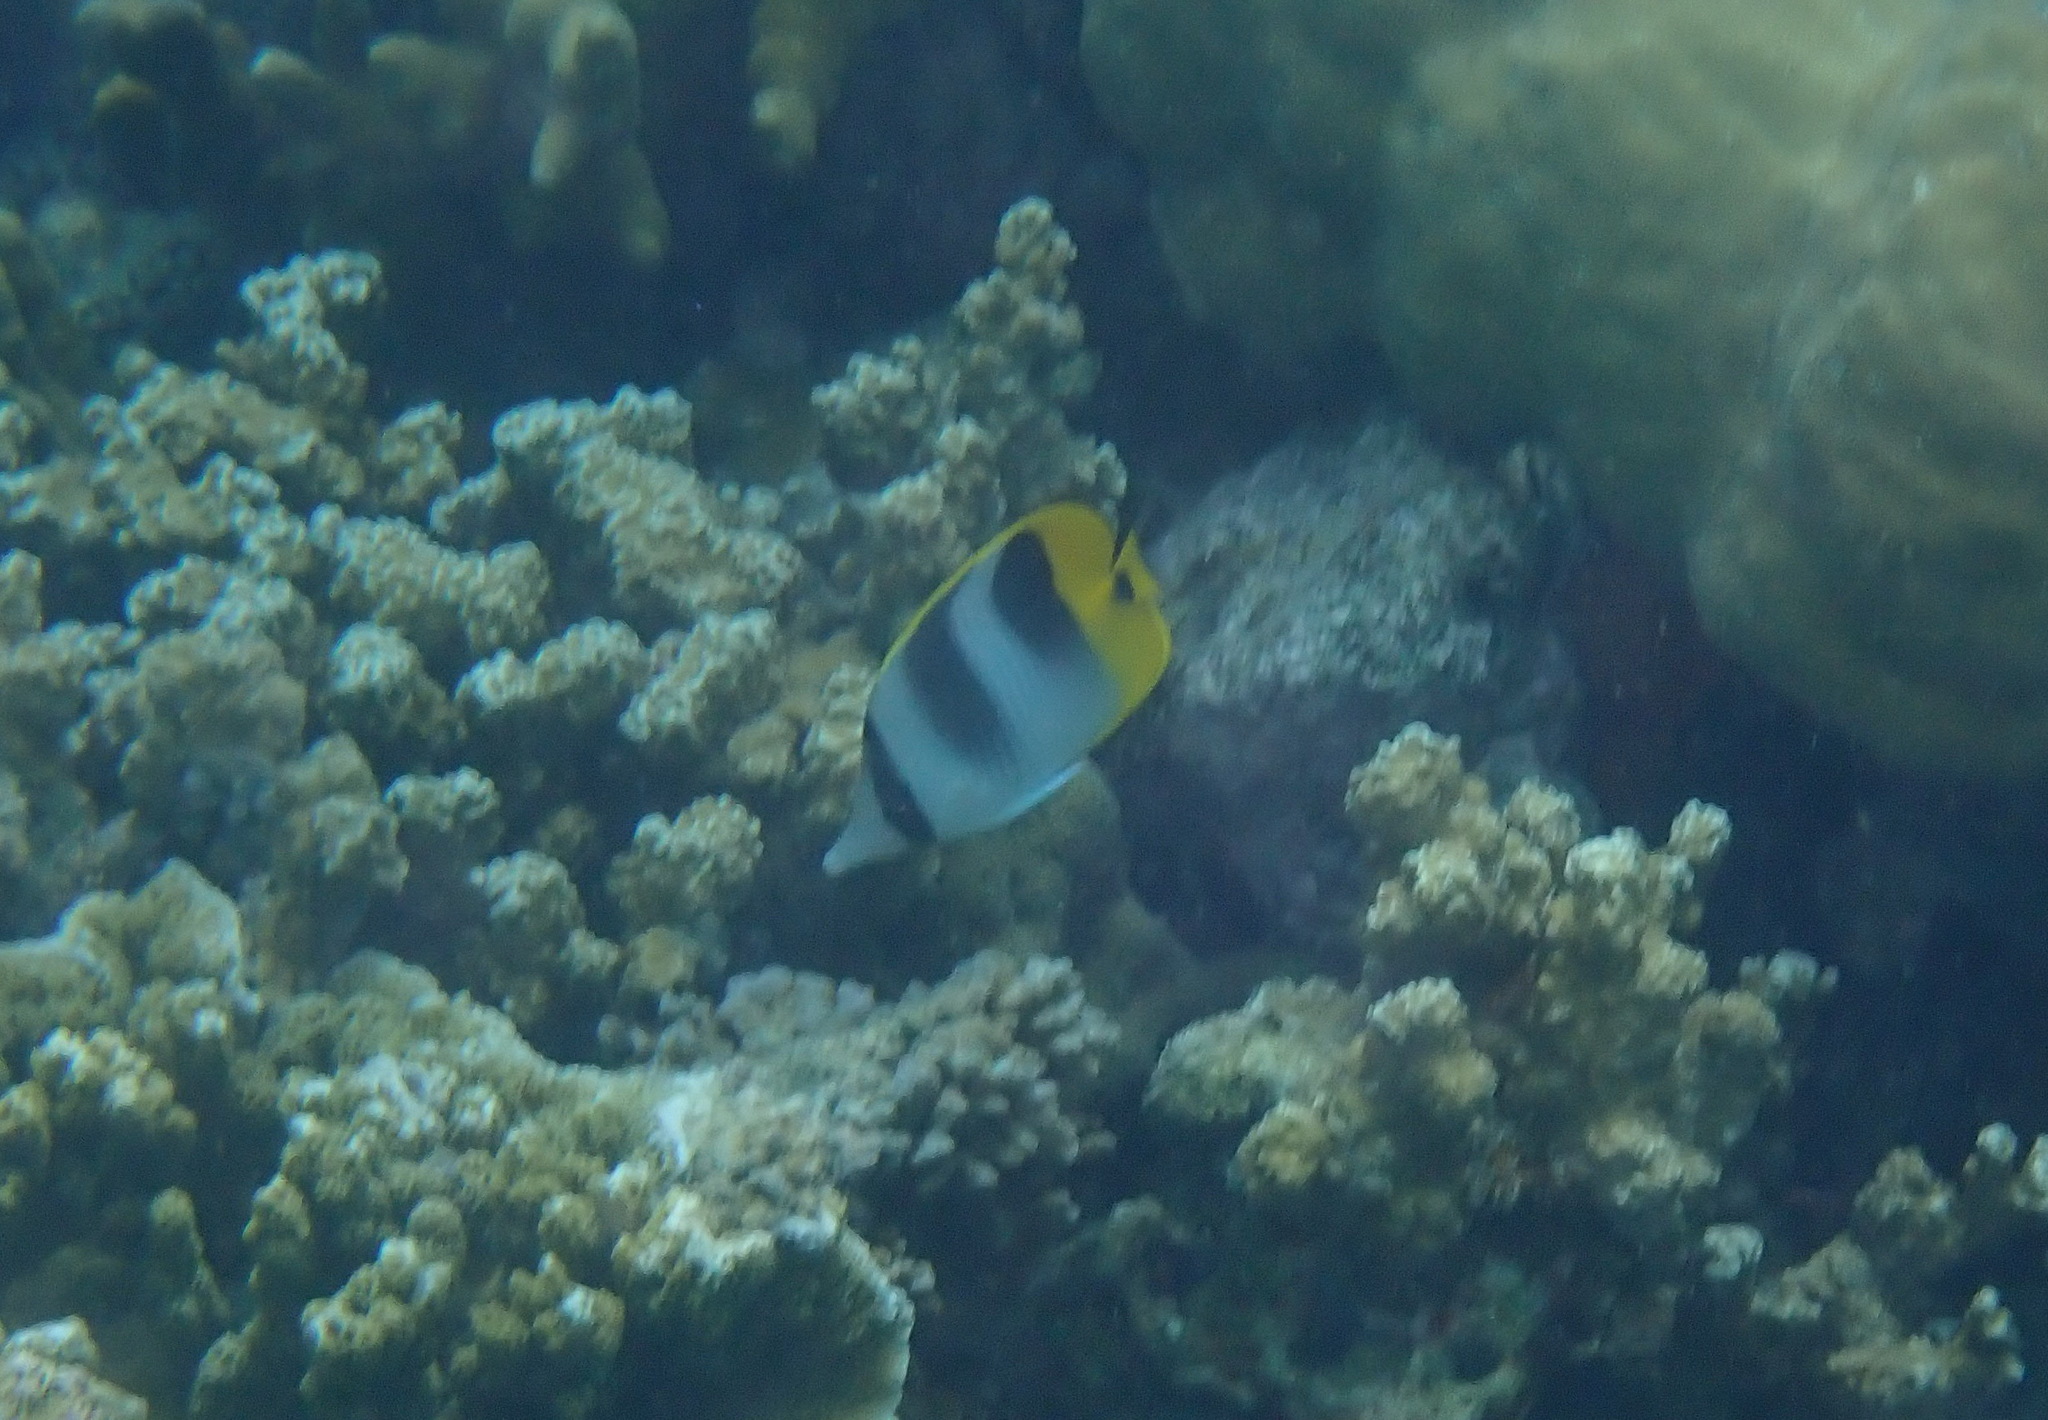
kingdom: Animalia
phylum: Chordata
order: Perciformes
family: Chaetodontidae
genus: Chaetodon
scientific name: Chaetodon ulietensis
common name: Pacific double-saddle butterflyfish
